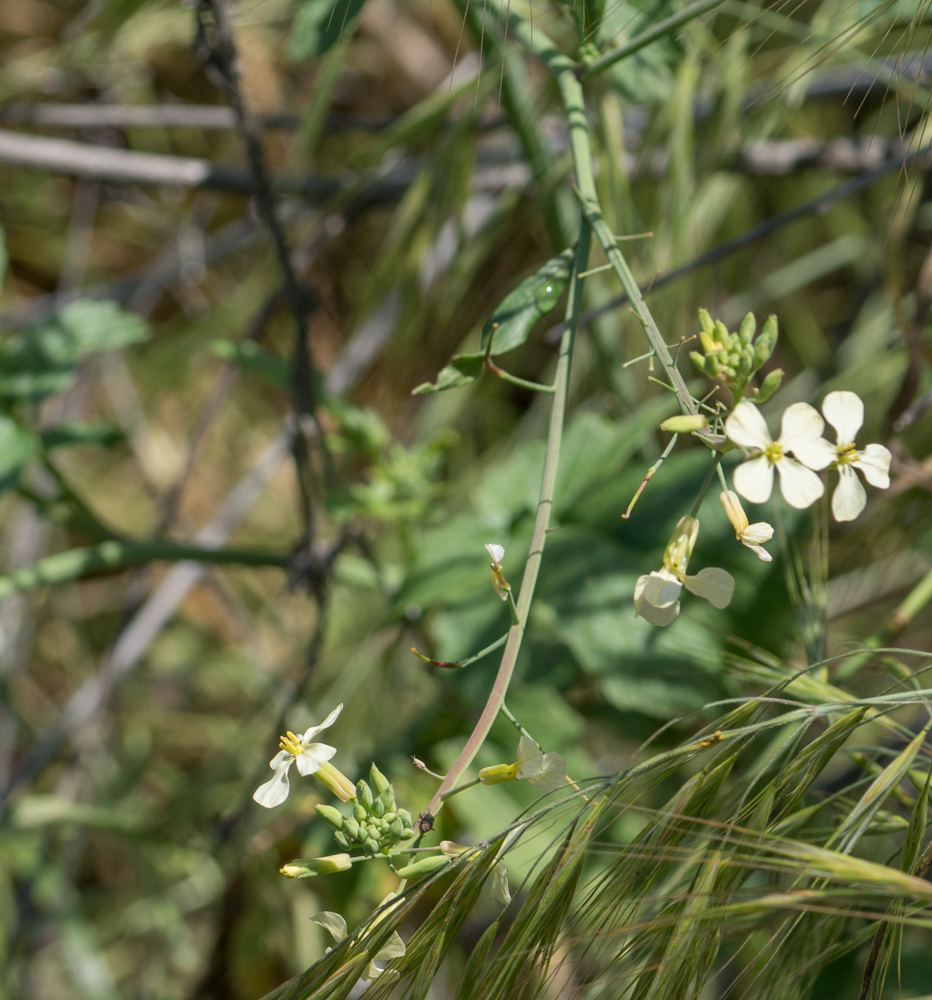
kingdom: Plantae
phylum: Tracheophyta
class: Magnoliopsida
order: Brassicales
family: Brassicaceae
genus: Raphanus
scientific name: Raphanus sativus
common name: Cultivated radish
